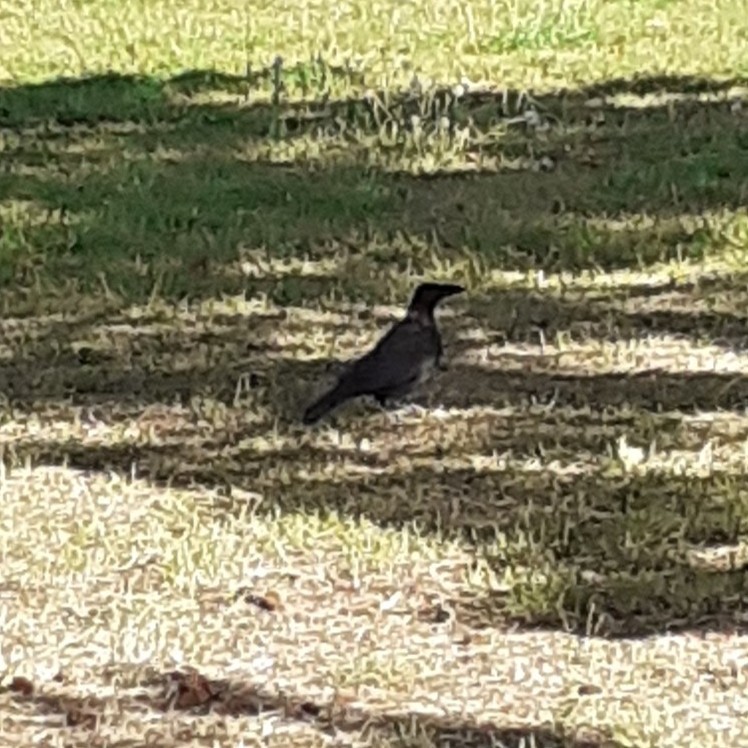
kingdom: Animalia
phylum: Chordata
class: Aves
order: Passeriformes
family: Corvidae
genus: Corvus
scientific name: Corvus corone
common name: Carrion crow
